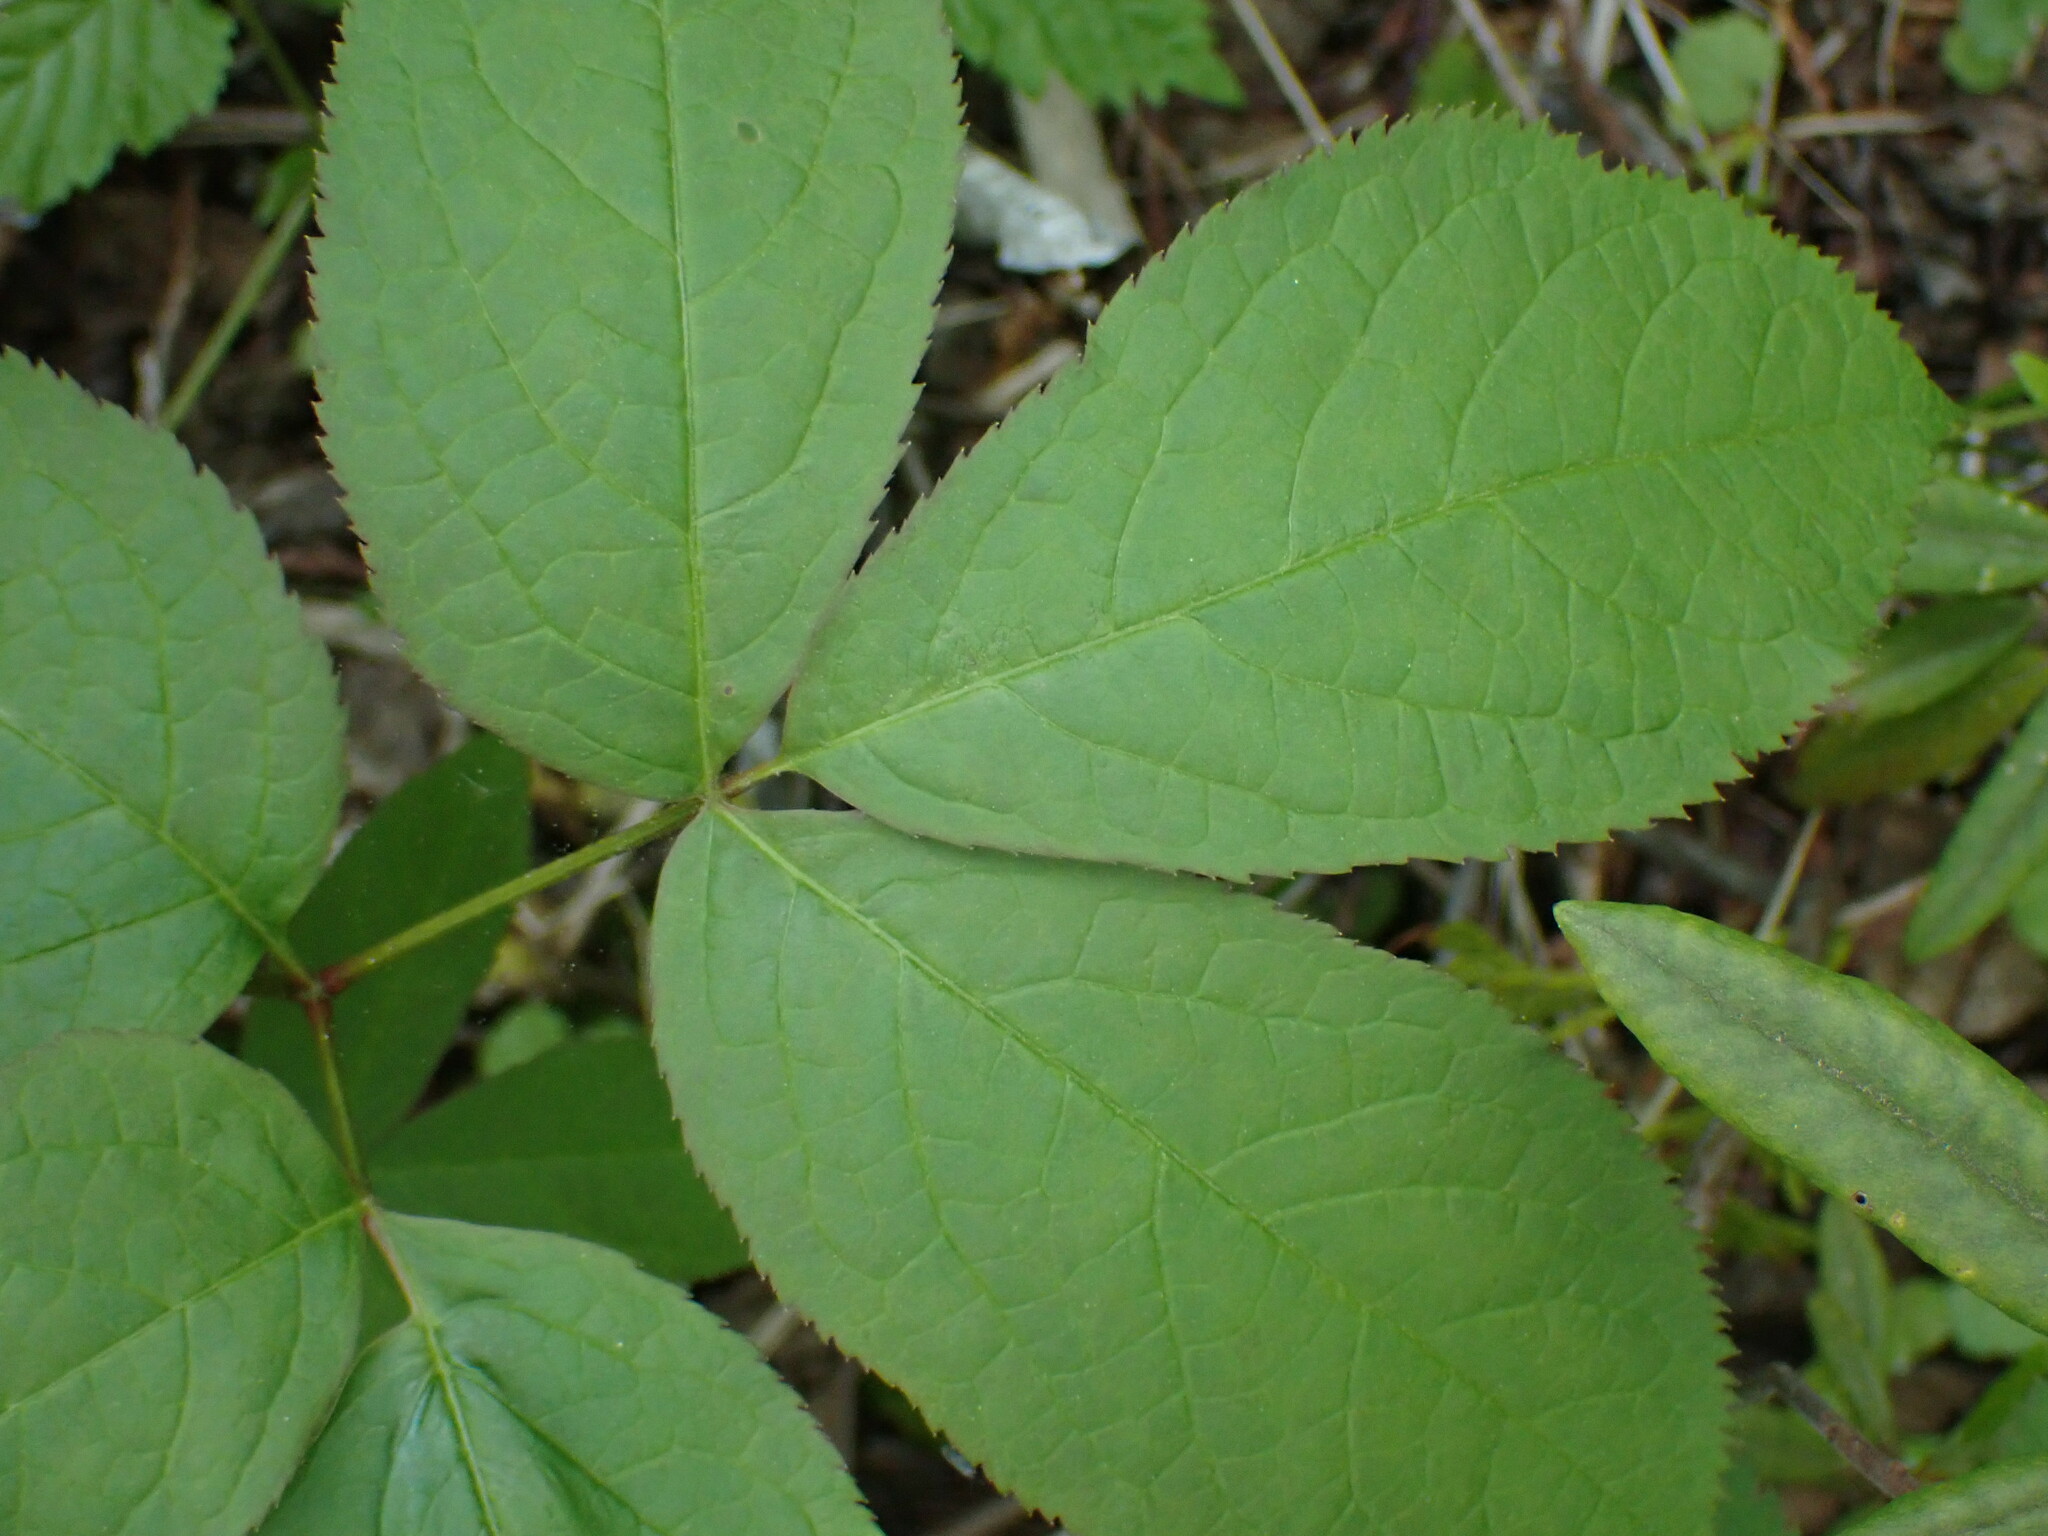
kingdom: Plantae
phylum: Tracheophyta
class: Magnoliopsida
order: Apiales
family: Araliaceae
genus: Aralia
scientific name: Aralia nudicaulis
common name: Wild sarsaparilla
